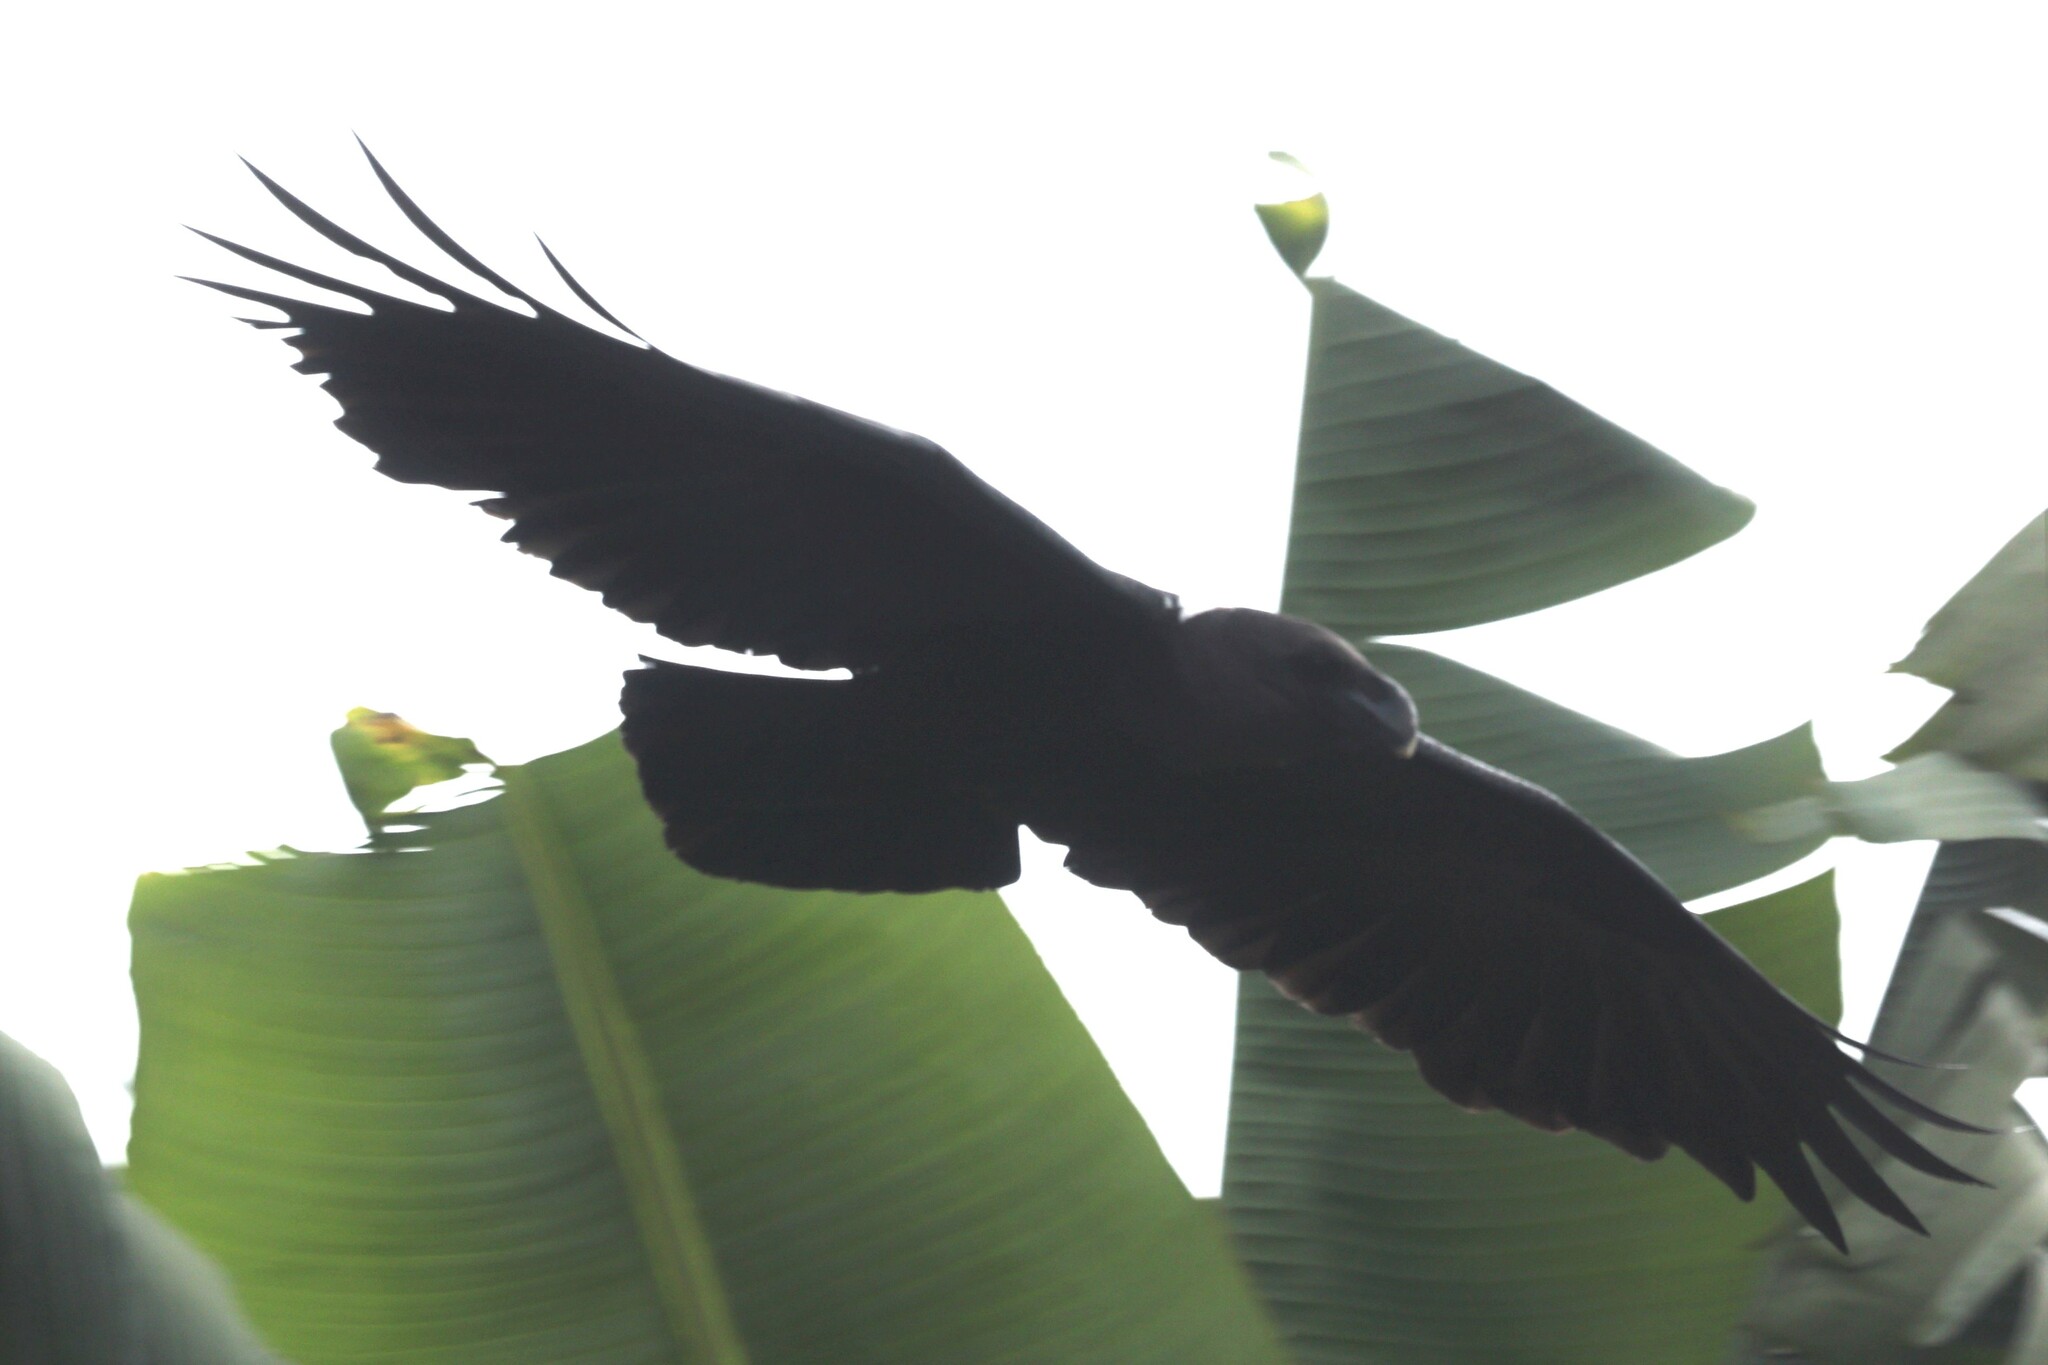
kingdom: Animalia
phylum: Chordata
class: Aves
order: Passeriformes
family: Corvidae
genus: Corvus
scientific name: Corvus albicollis
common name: White-necked raven
